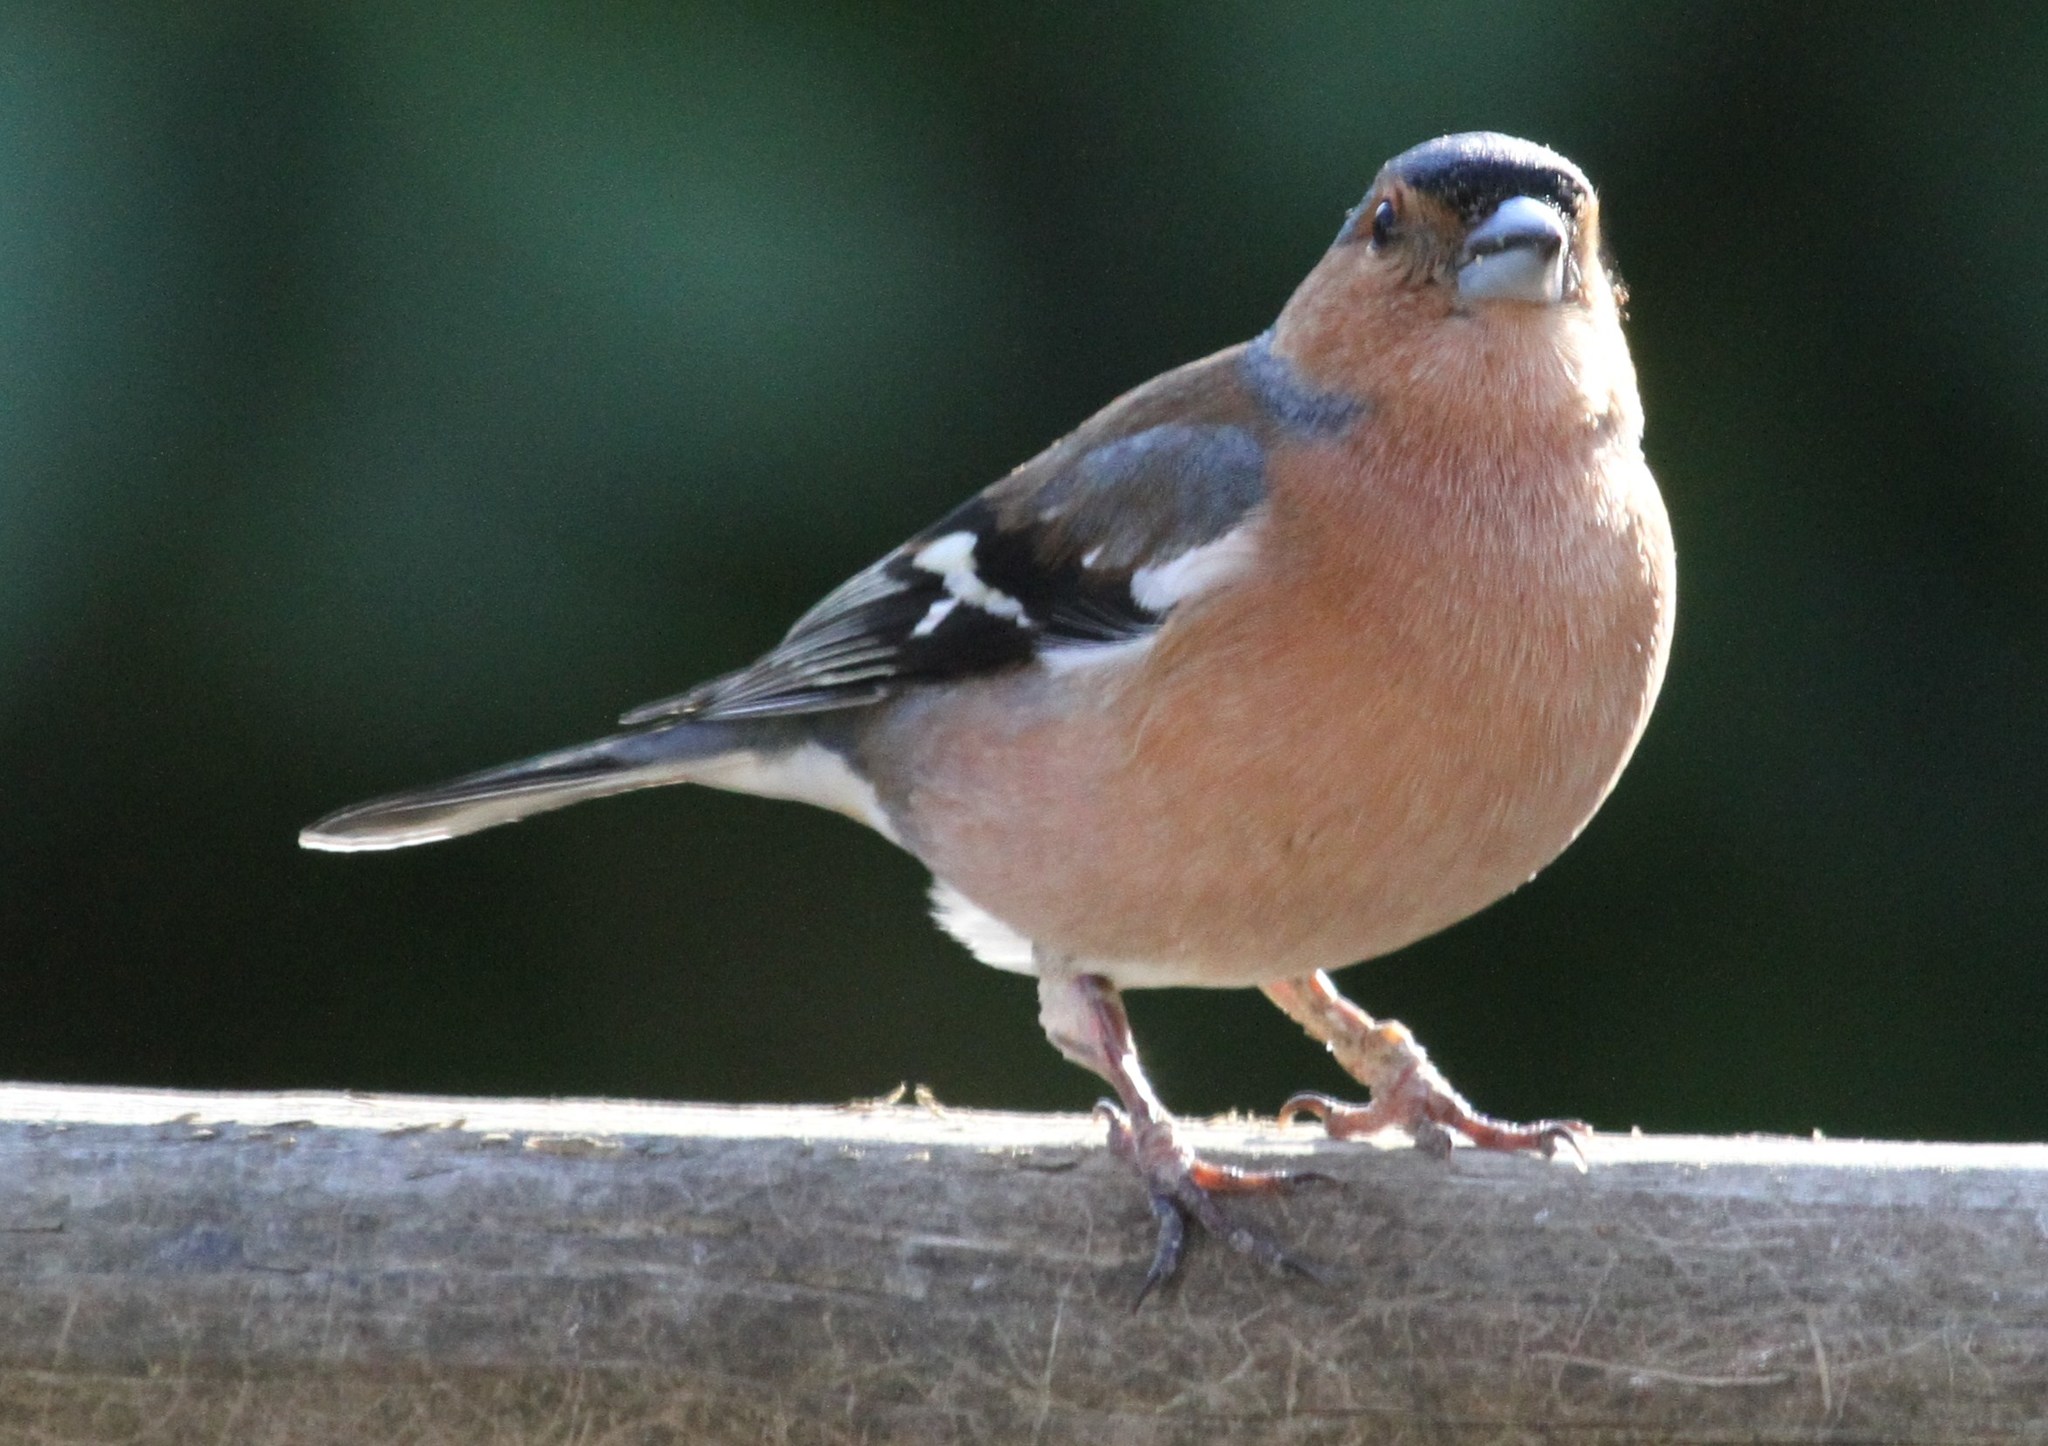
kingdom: Animalia
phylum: Chordata
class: Aves
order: Passeriformes
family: Fringillidae
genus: Fringilla
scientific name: Fringilla coelebs
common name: Common chaffinch
